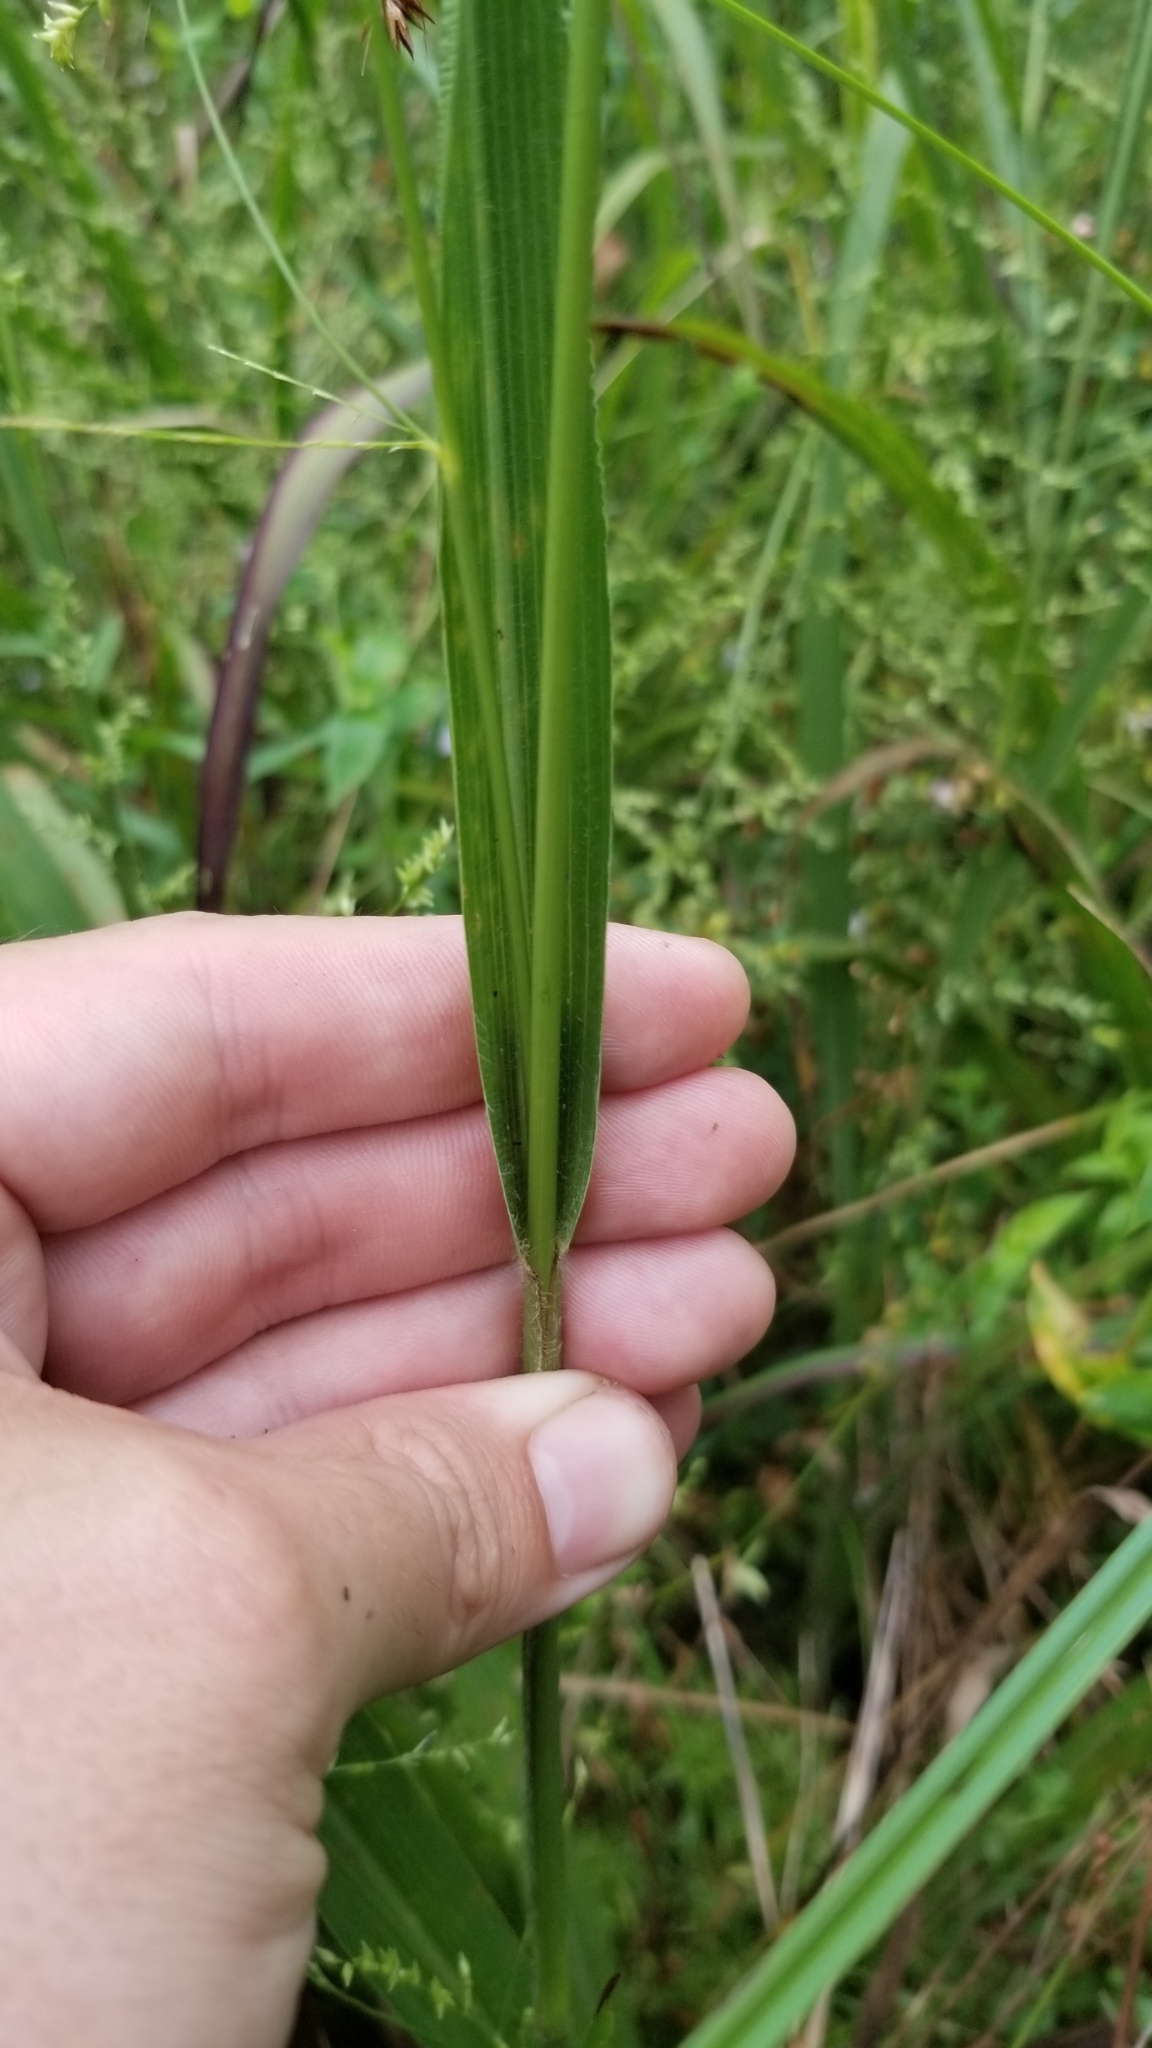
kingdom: Plantae
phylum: Tracheophyta
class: Liliopsida
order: Poales
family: Poaceae
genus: Coleataenia
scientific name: Coleataenia anceps
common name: Beaked panic grass
